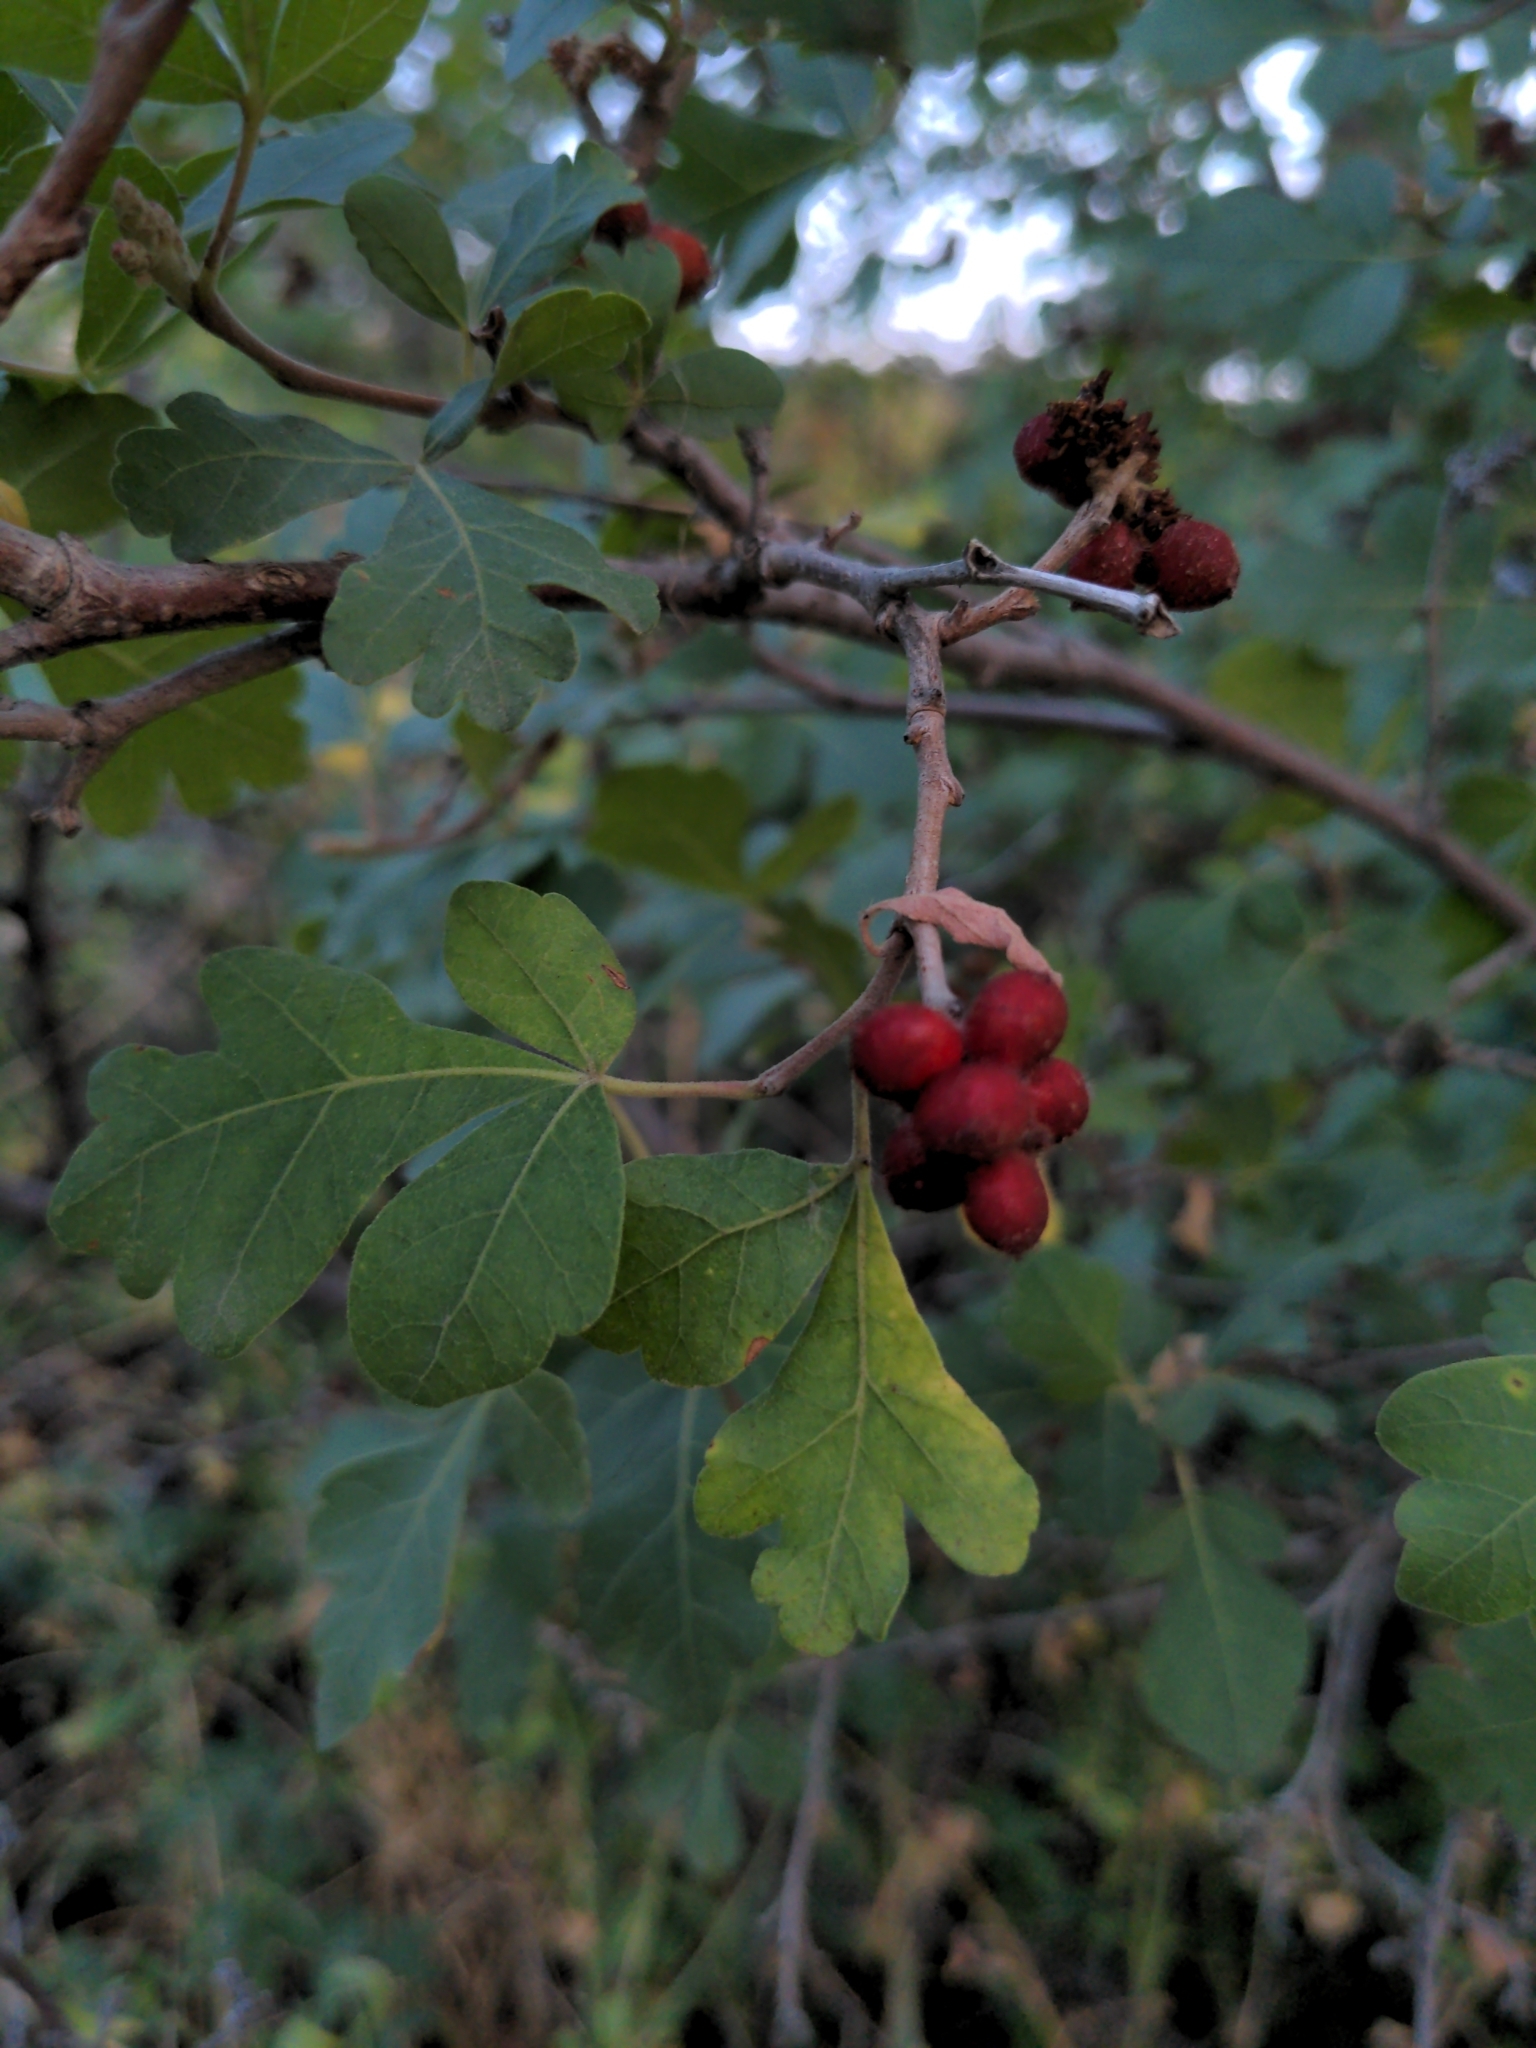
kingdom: Plantae
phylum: Tracheophyta
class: Magnoliopsida
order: Sapindales
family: Anacardiaceae
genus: Rhus
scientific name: Rhus aromatica
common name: Aromatic sumac
